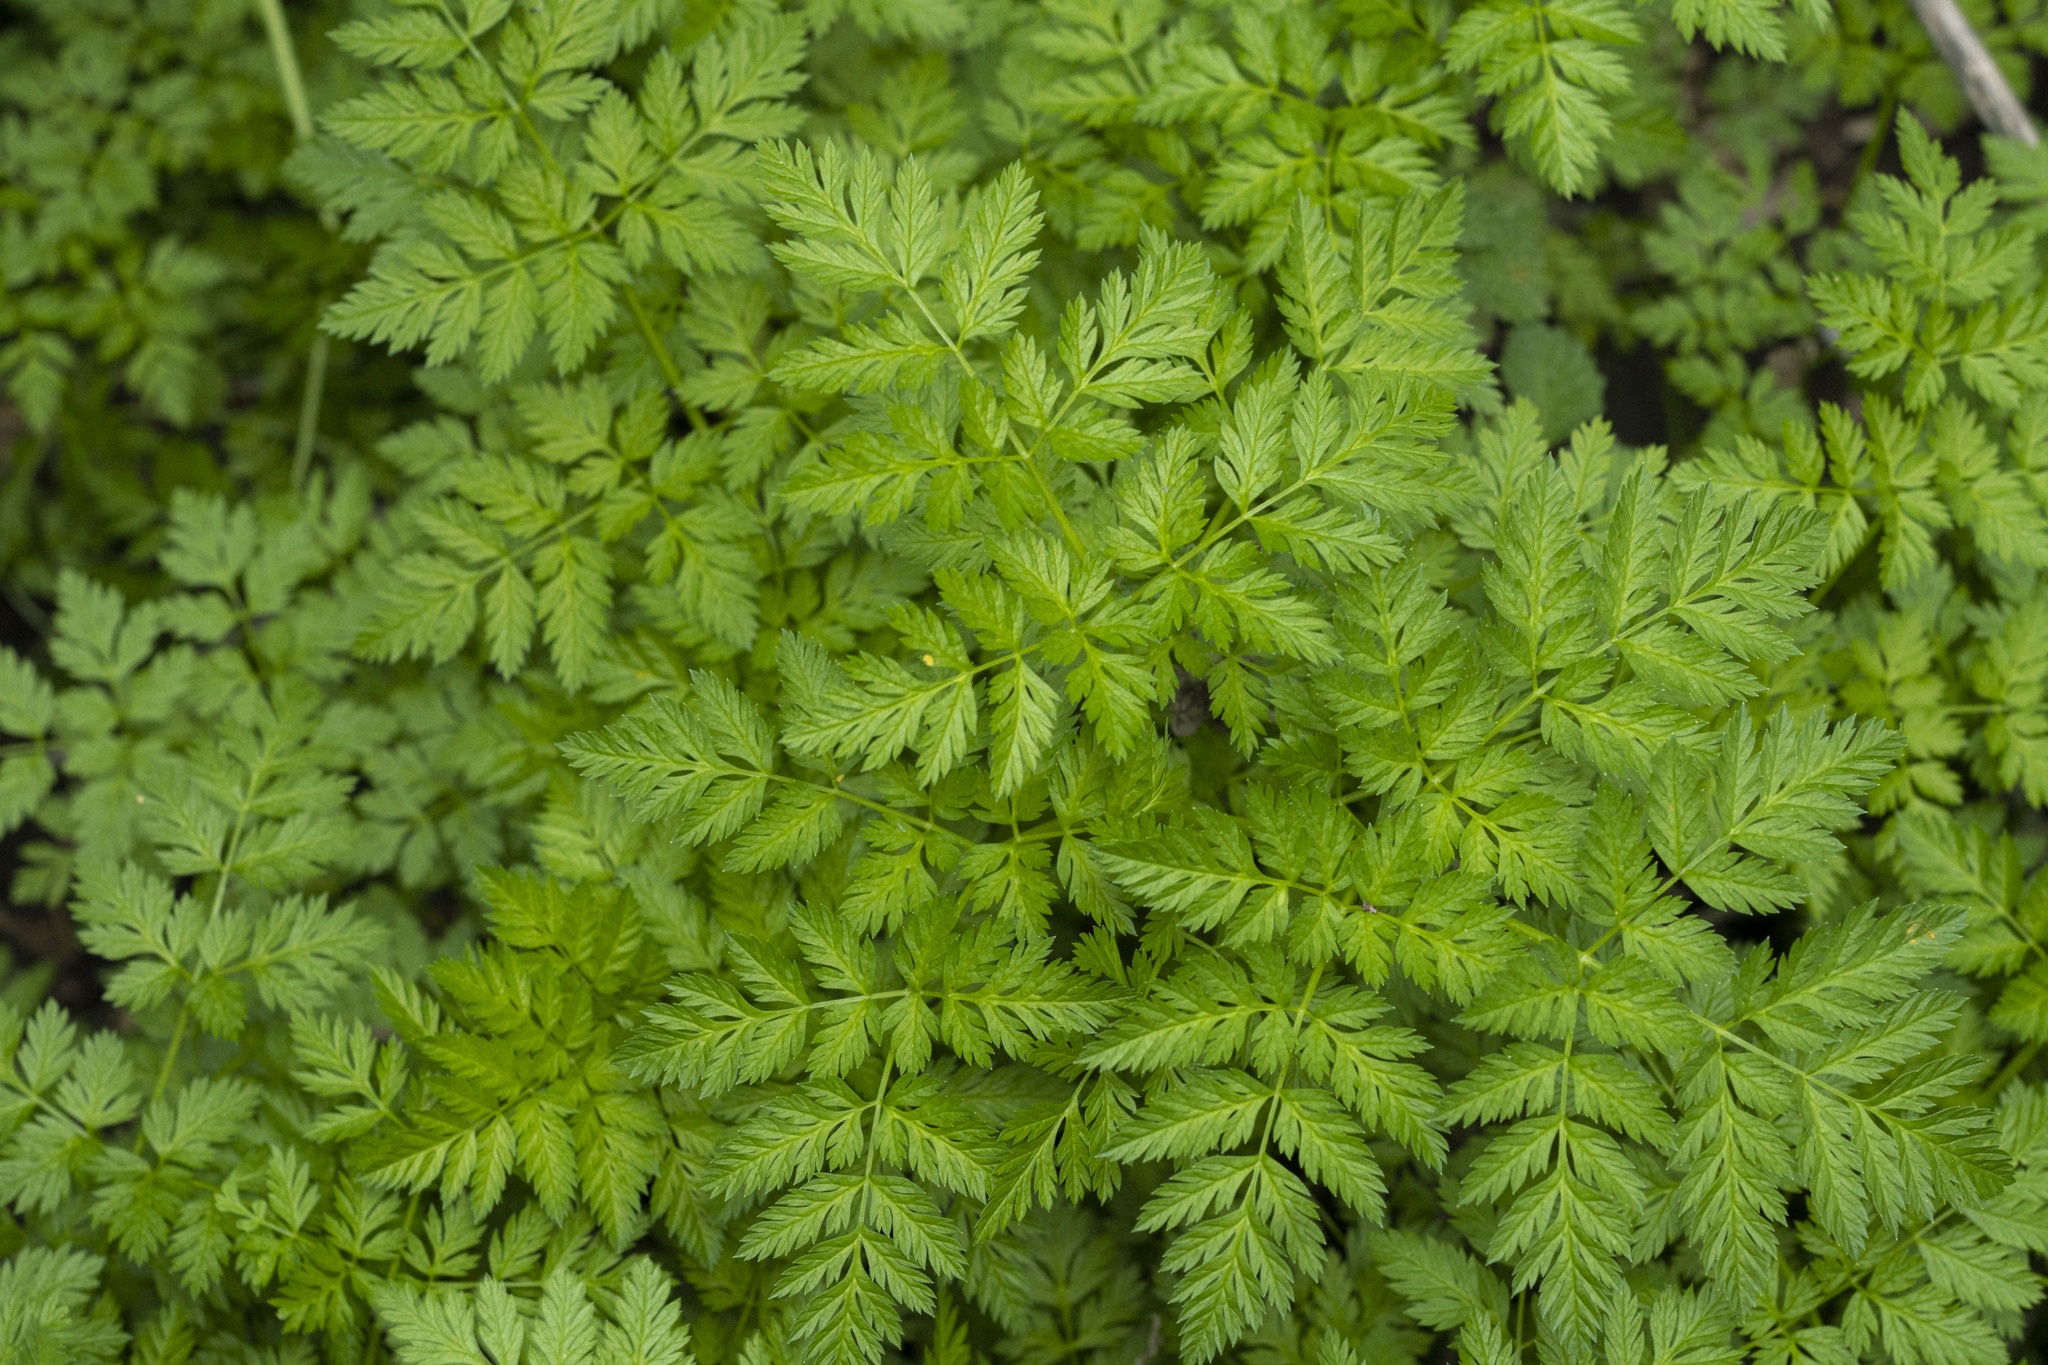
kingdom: Plantae
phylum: Tracheophyta
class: Magnoliopsida
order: Apiales
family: Apiaceae
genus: Conium
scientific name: Conium maculatum
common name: Hemlock
